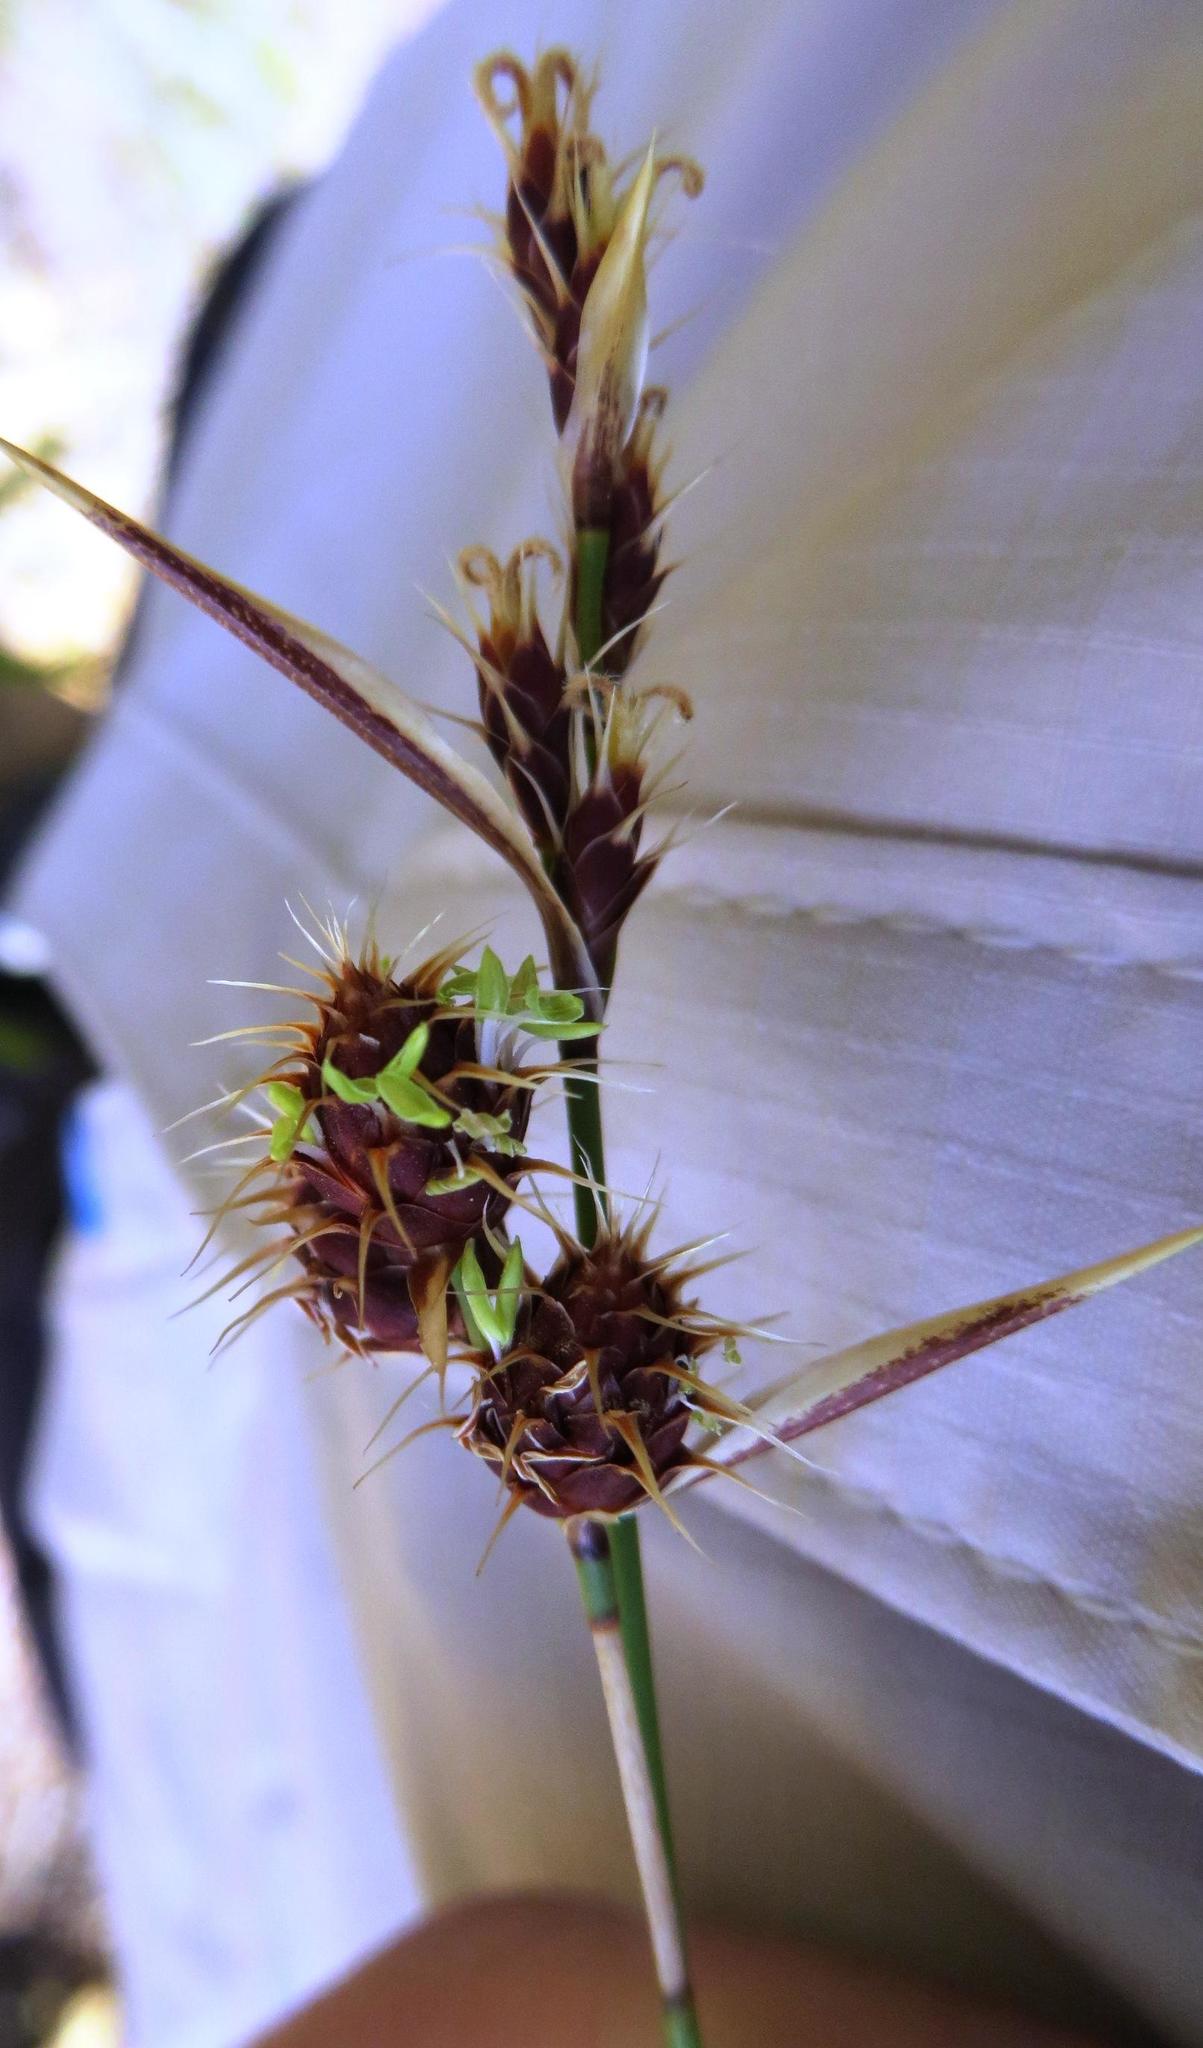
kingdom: Plantae
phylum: Tracheophyta
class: Liliopsida
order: Poales
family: Restionaceae
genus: Hypodiscus
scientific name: Hypodiscus alboaristatus
